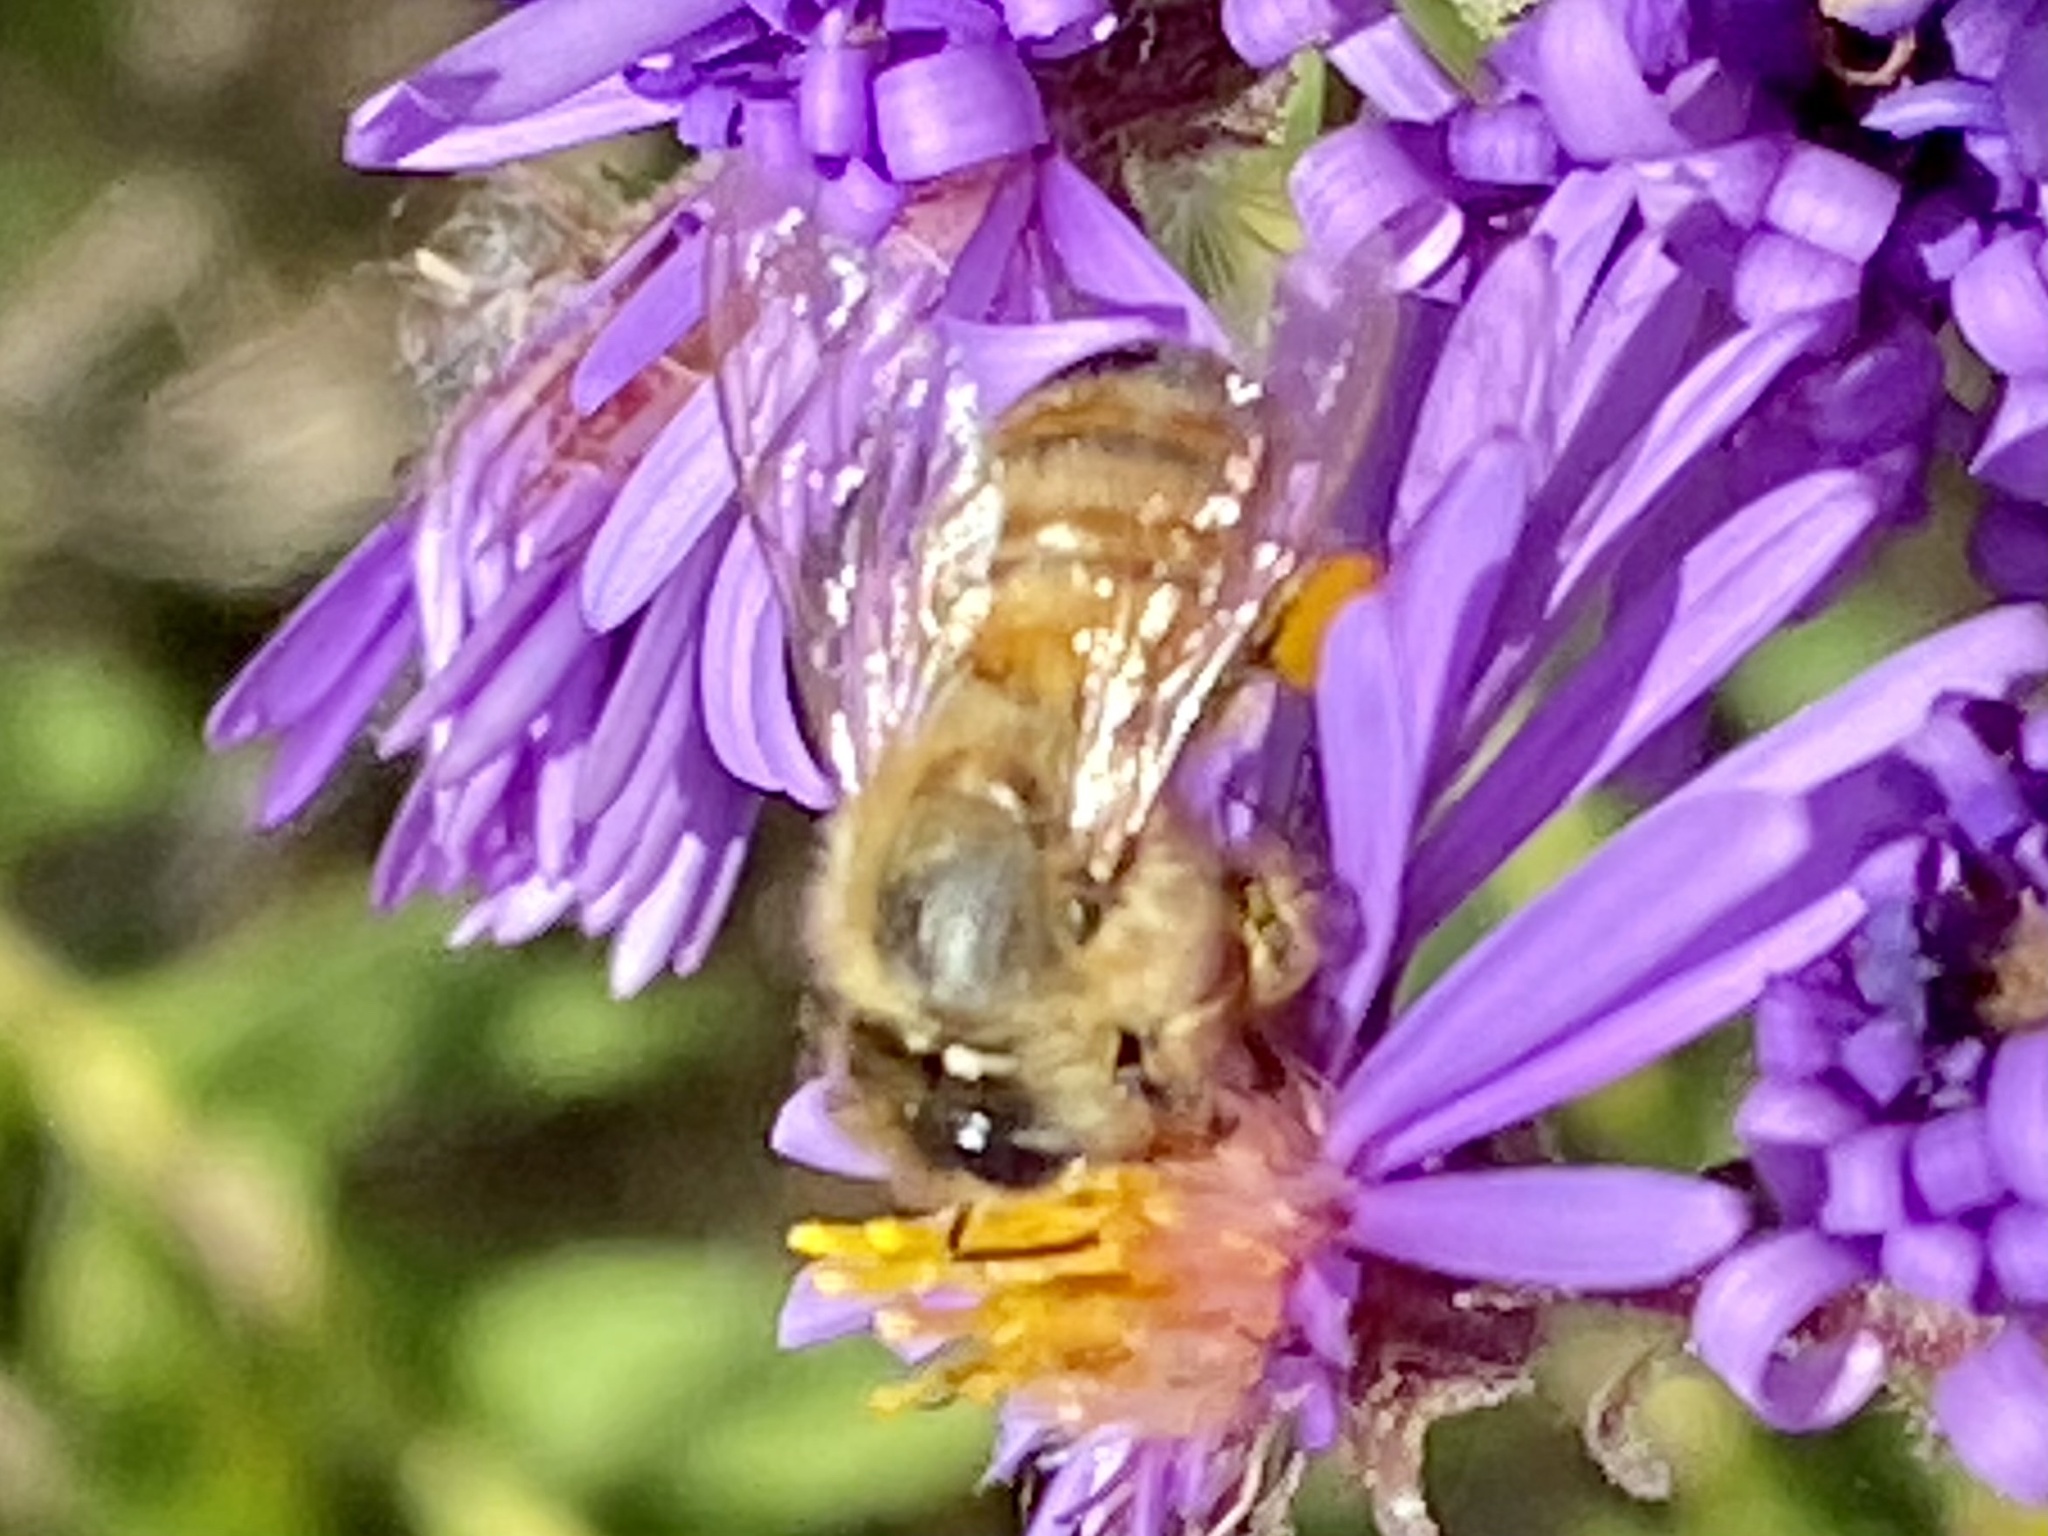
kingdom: Animalia
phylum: Arthropoda
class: Insecta
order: Hymenoptera
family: Apidae
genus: Apis
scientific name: Apis mellifera
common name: Honey bee
